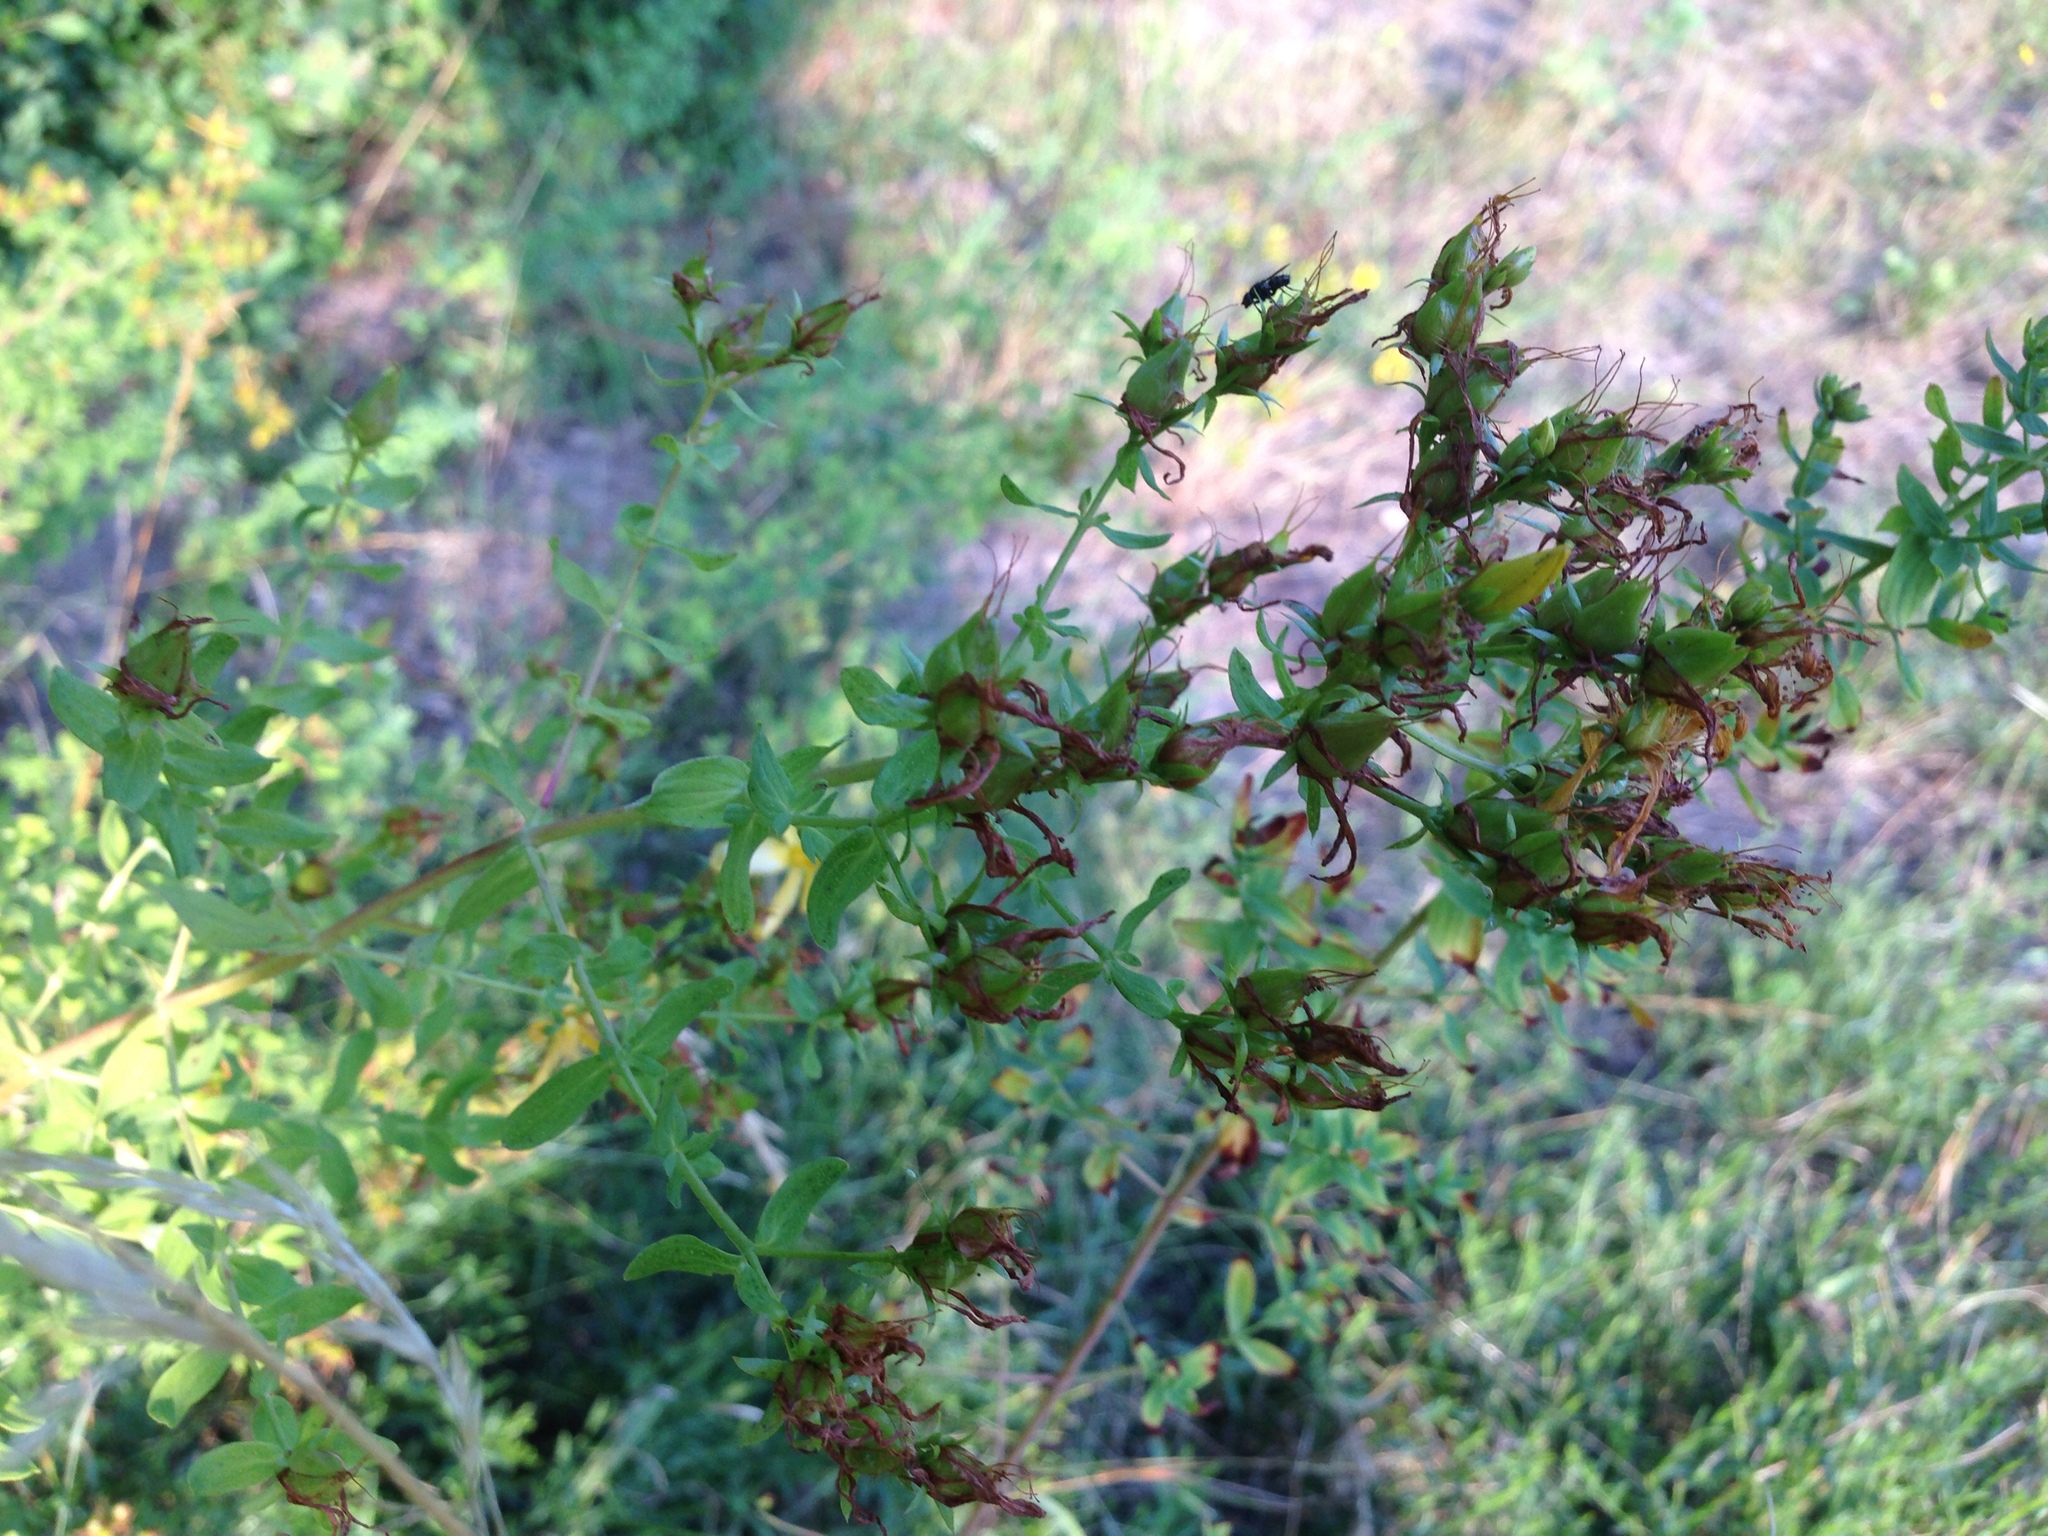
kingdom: Plantae
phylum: Tracheophyta
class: Magnoliopsida
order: Malpighiales
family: Hypericaceae
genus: Hypericum
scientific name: Hypericum perforatum
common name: Common st. johnswort
